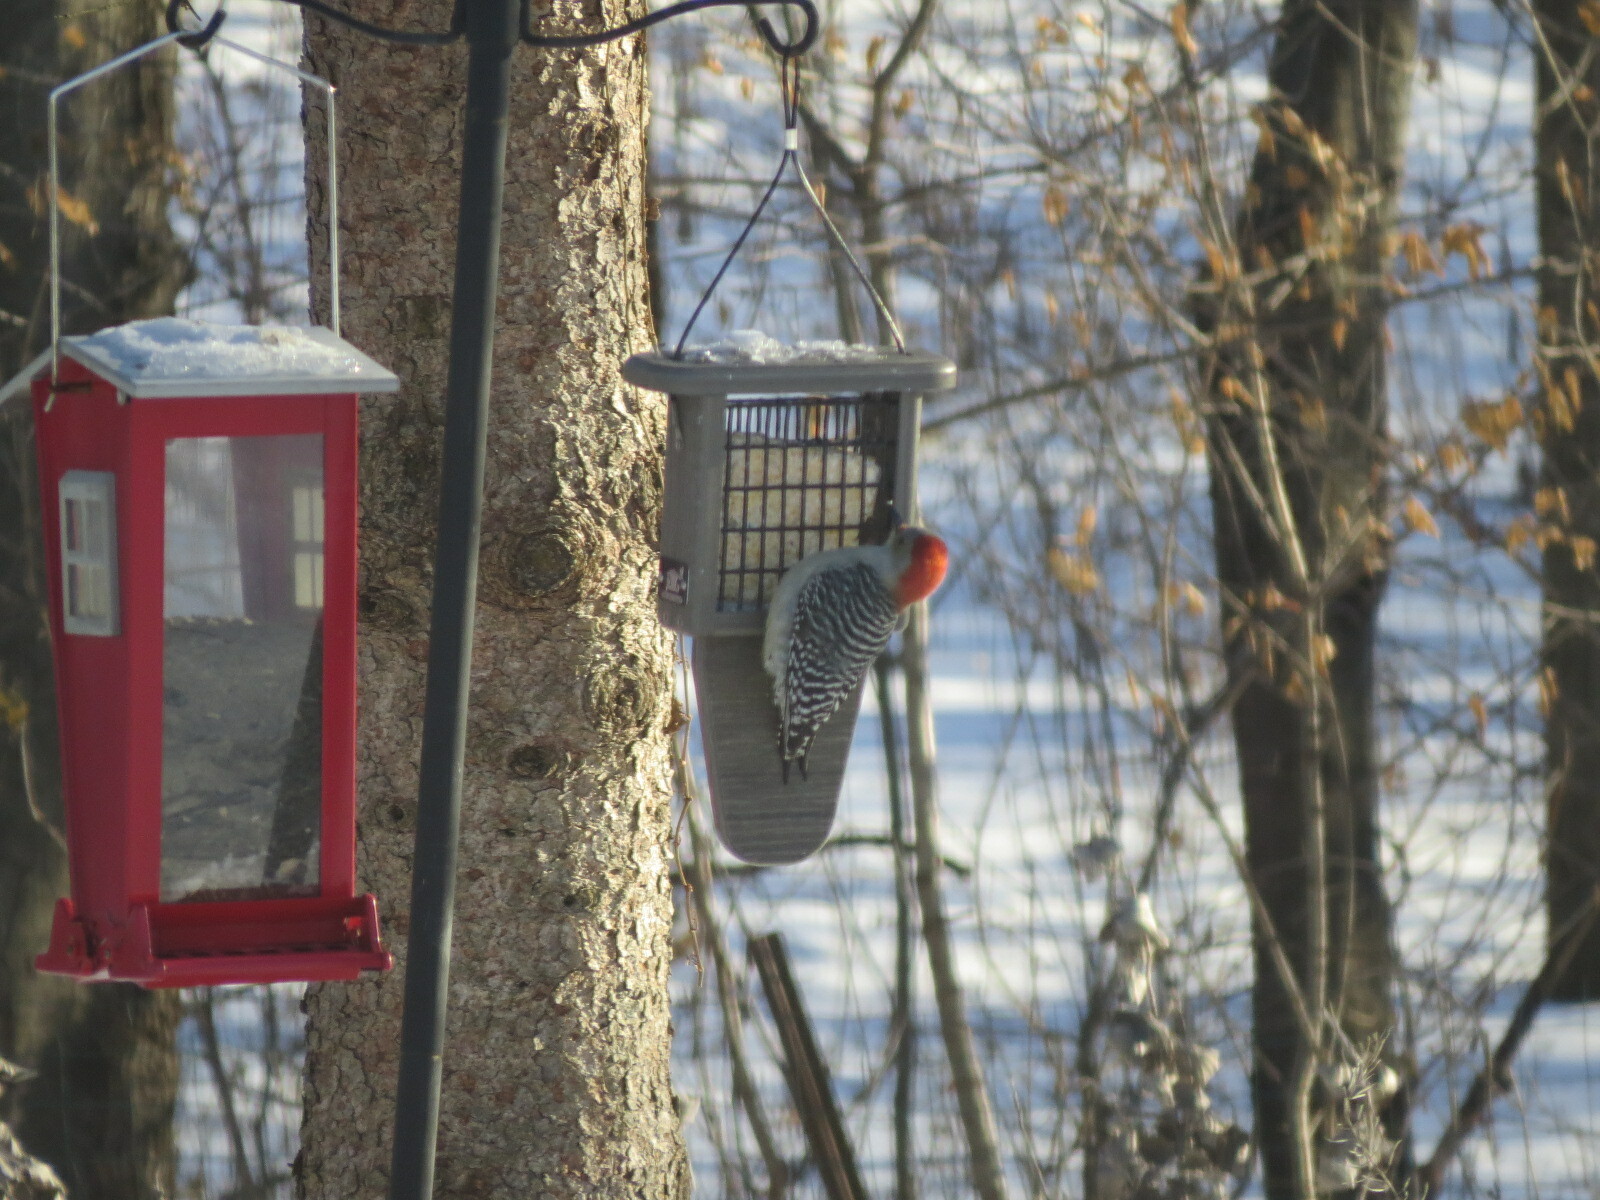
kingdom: Animalia
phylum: Chordata
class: Aves
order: Piciformes
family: Picidae
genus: Melanerpes
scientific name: Melanerpes carolinus
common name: Red-bellied woodpecker
